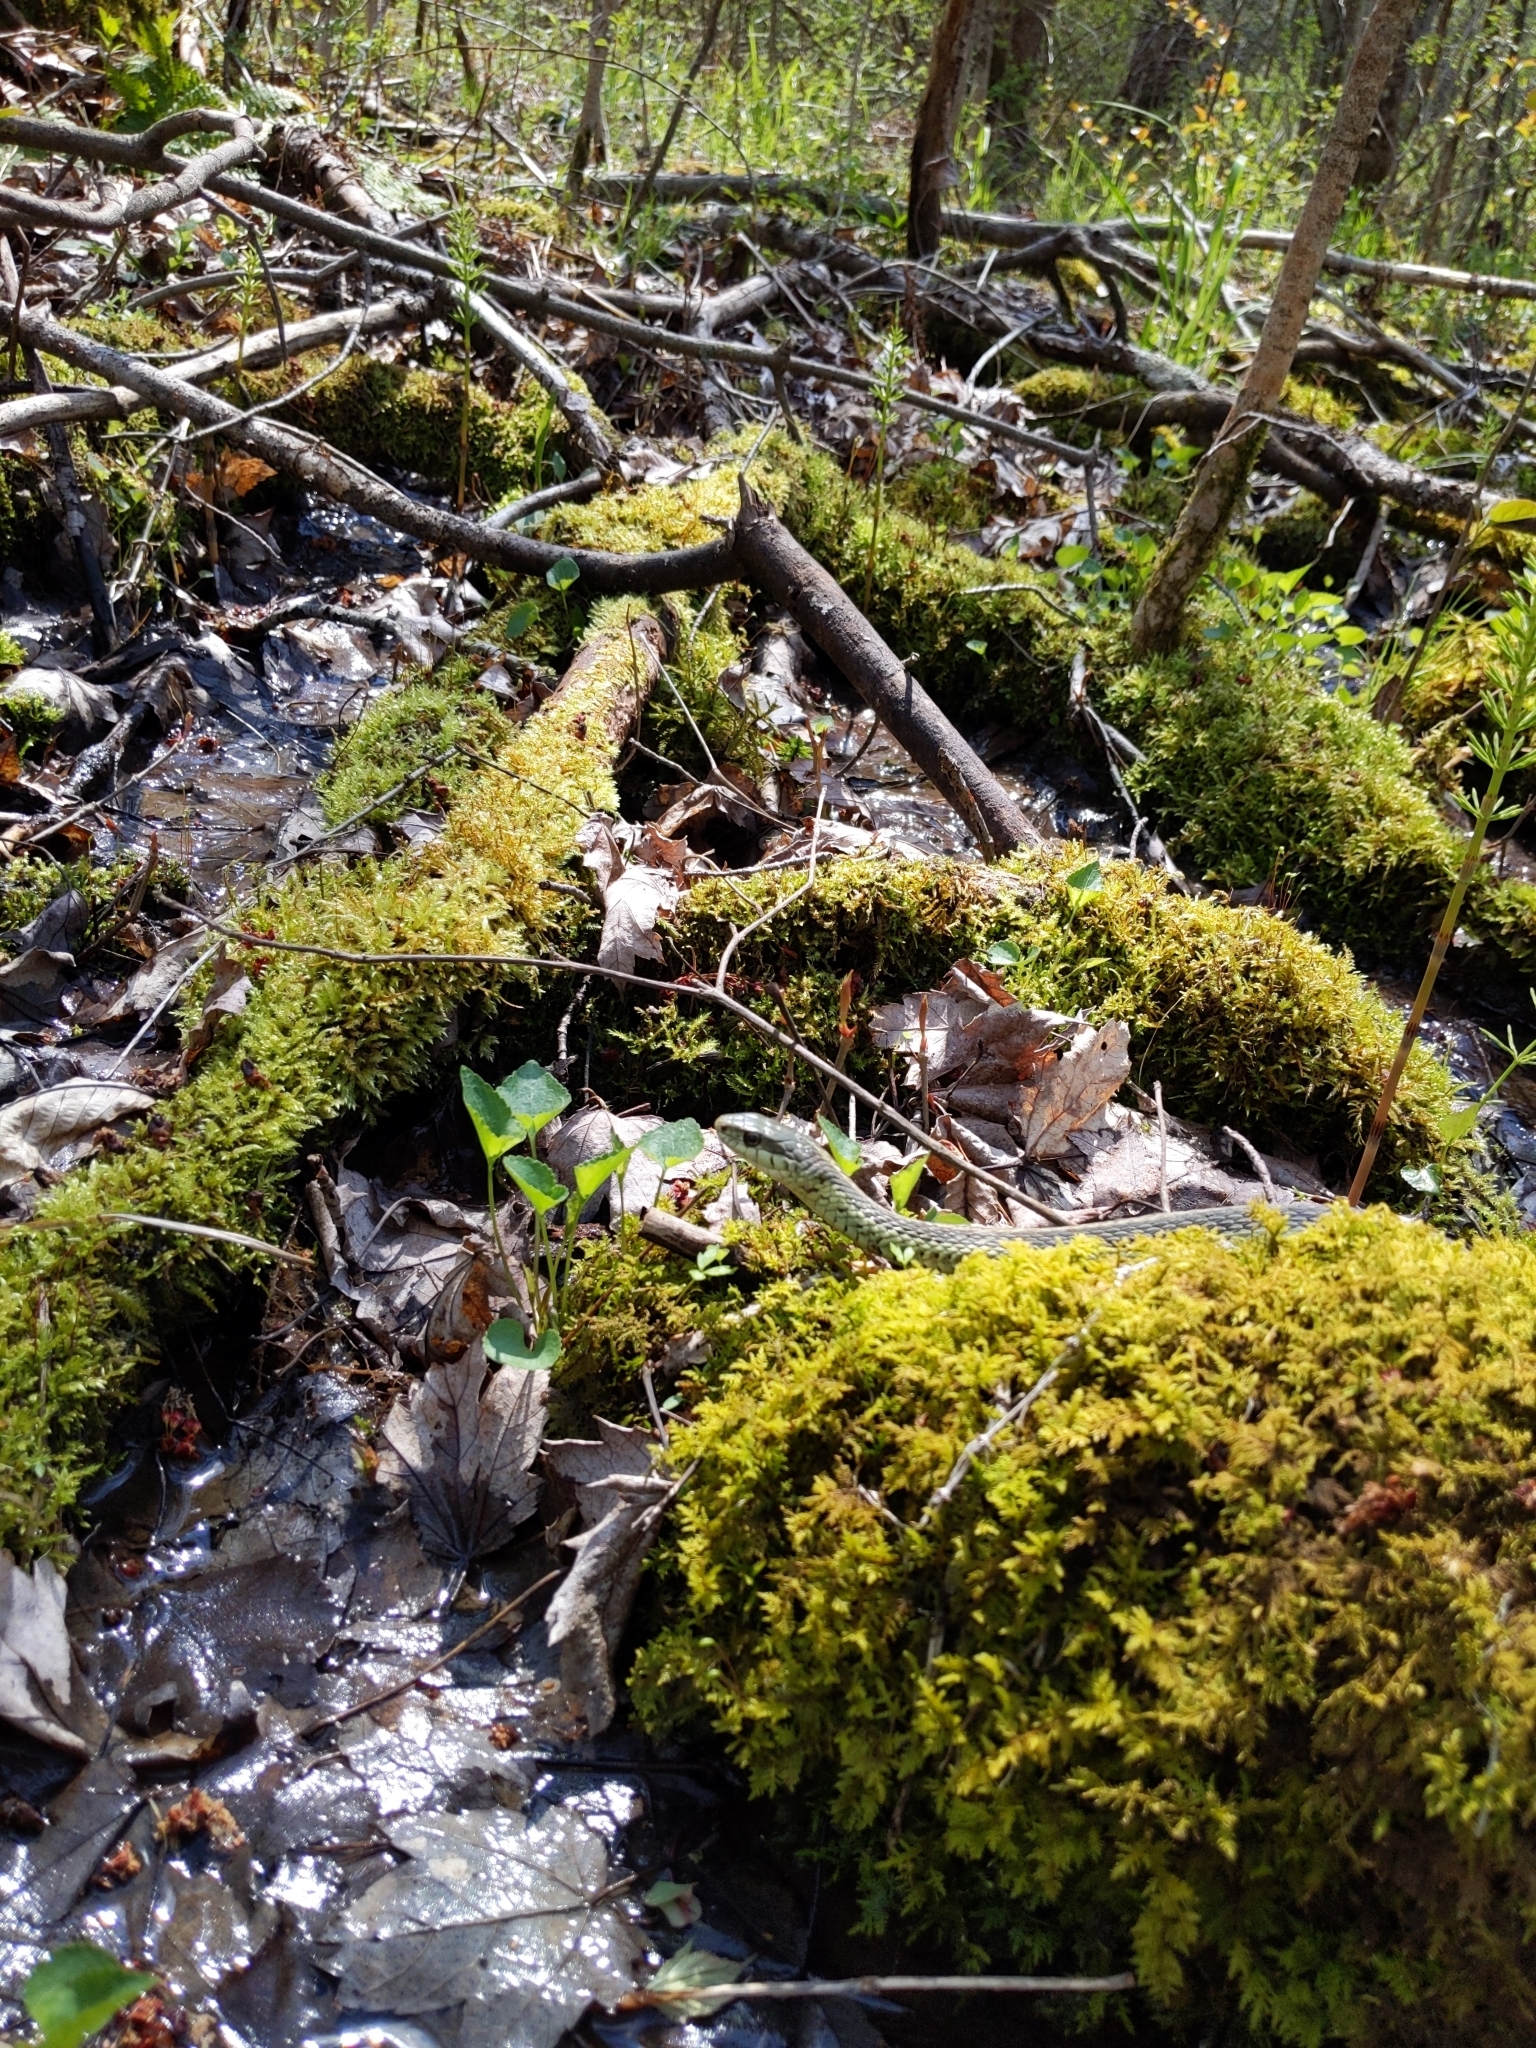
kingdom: Animalia
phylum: Chordata
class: Squamata
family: Colubridae
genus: Thamnophis
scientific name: Thamnophis sirtalis
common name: Common garter snake
